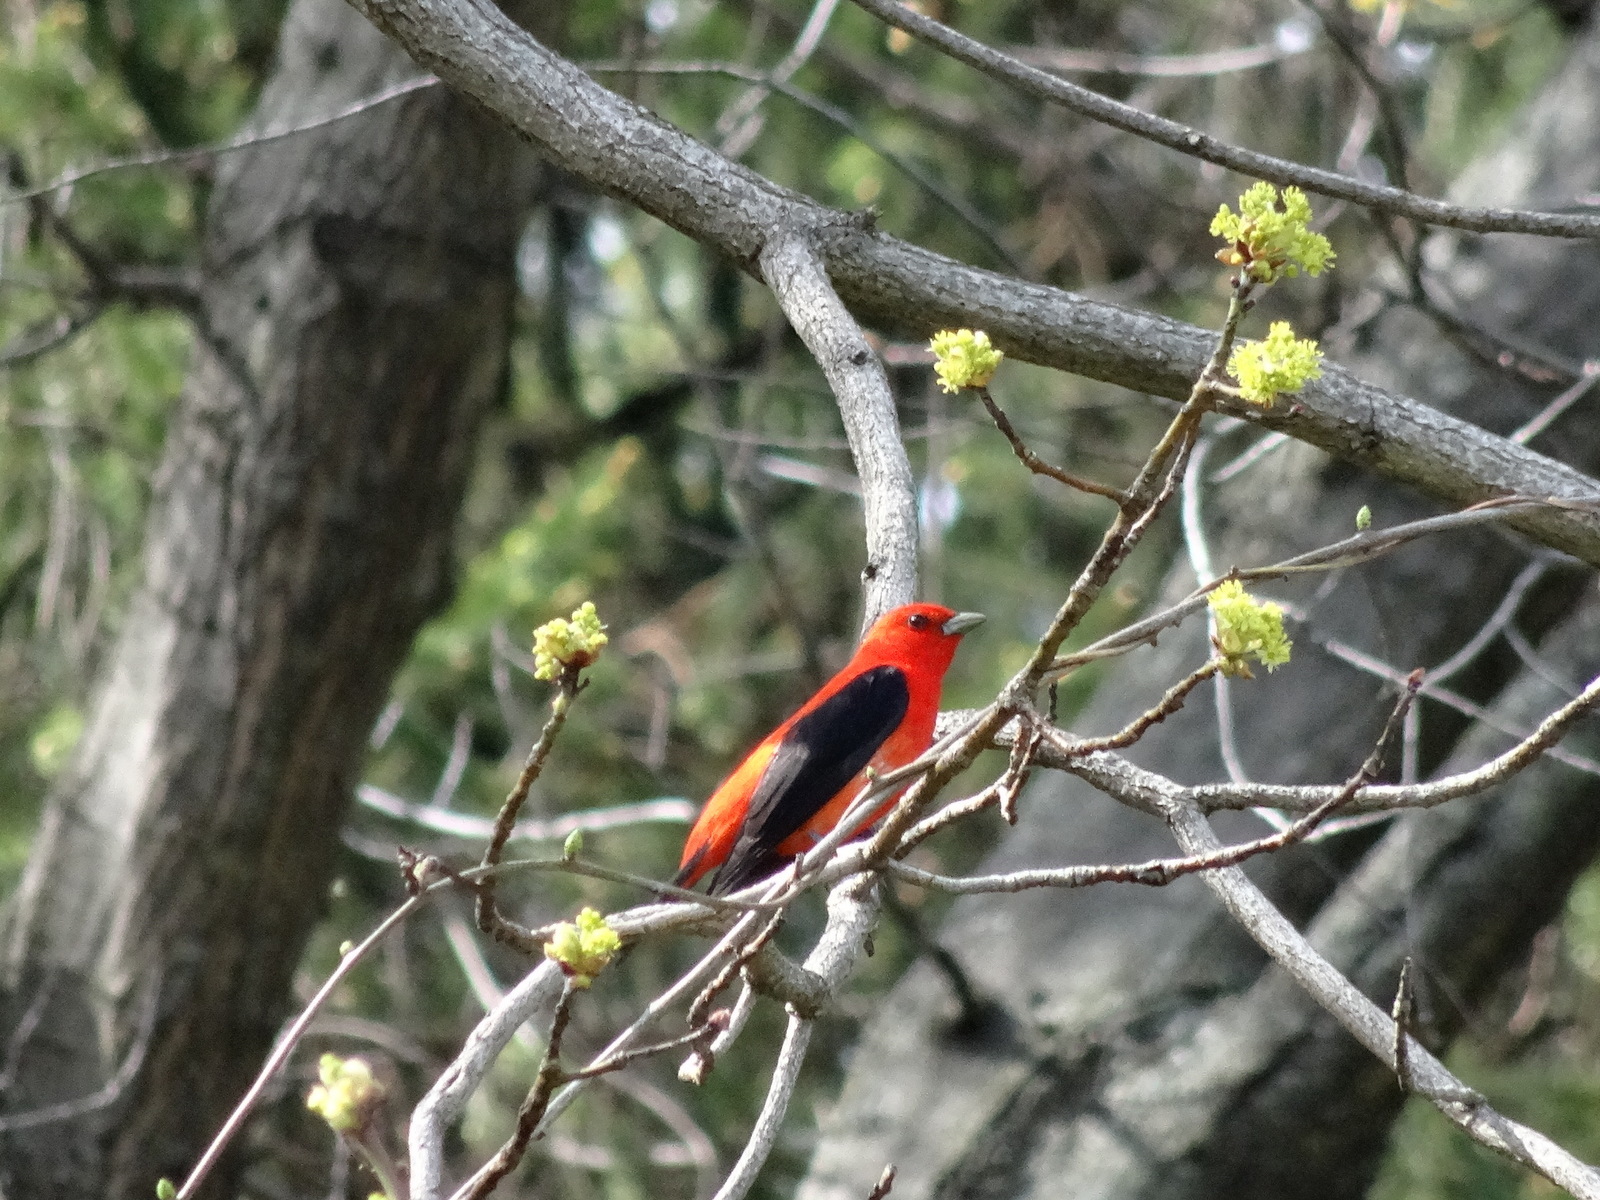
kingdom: Animalia
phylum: Chordata
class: Aves
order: Passeriformes
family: Cardinalidae
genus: Piranga
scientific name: Piranga olivacea
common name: Scarlet tanager
